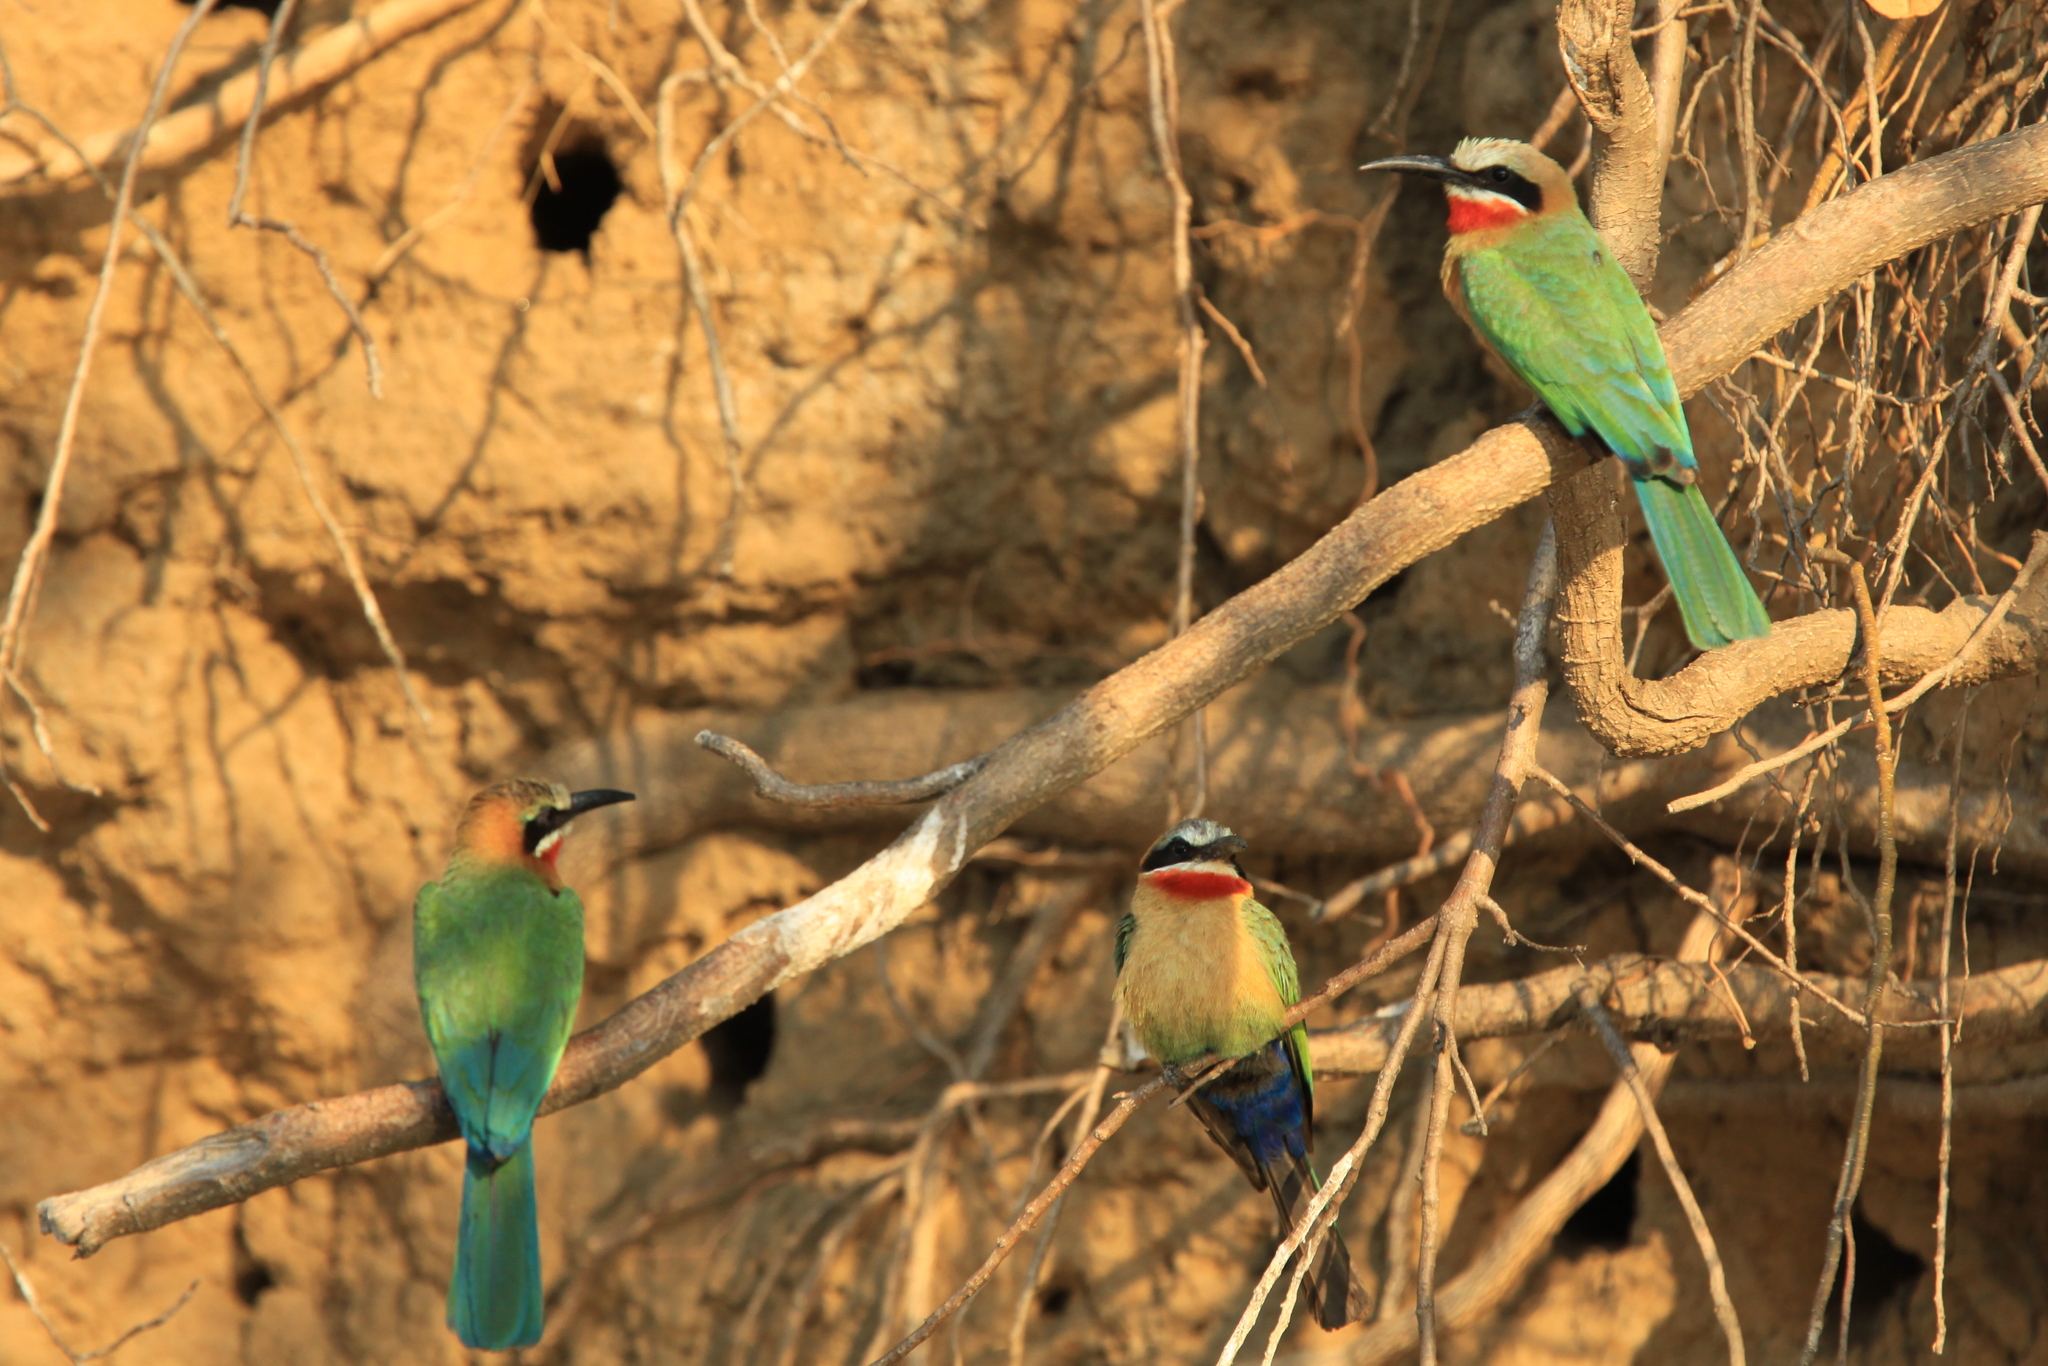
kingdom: Animalia
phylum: Chordata
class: Aves
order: Coraciiformes
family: Meropidae
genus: Merops
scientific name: Merops bullockoides
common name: White-fronted bee-eater
